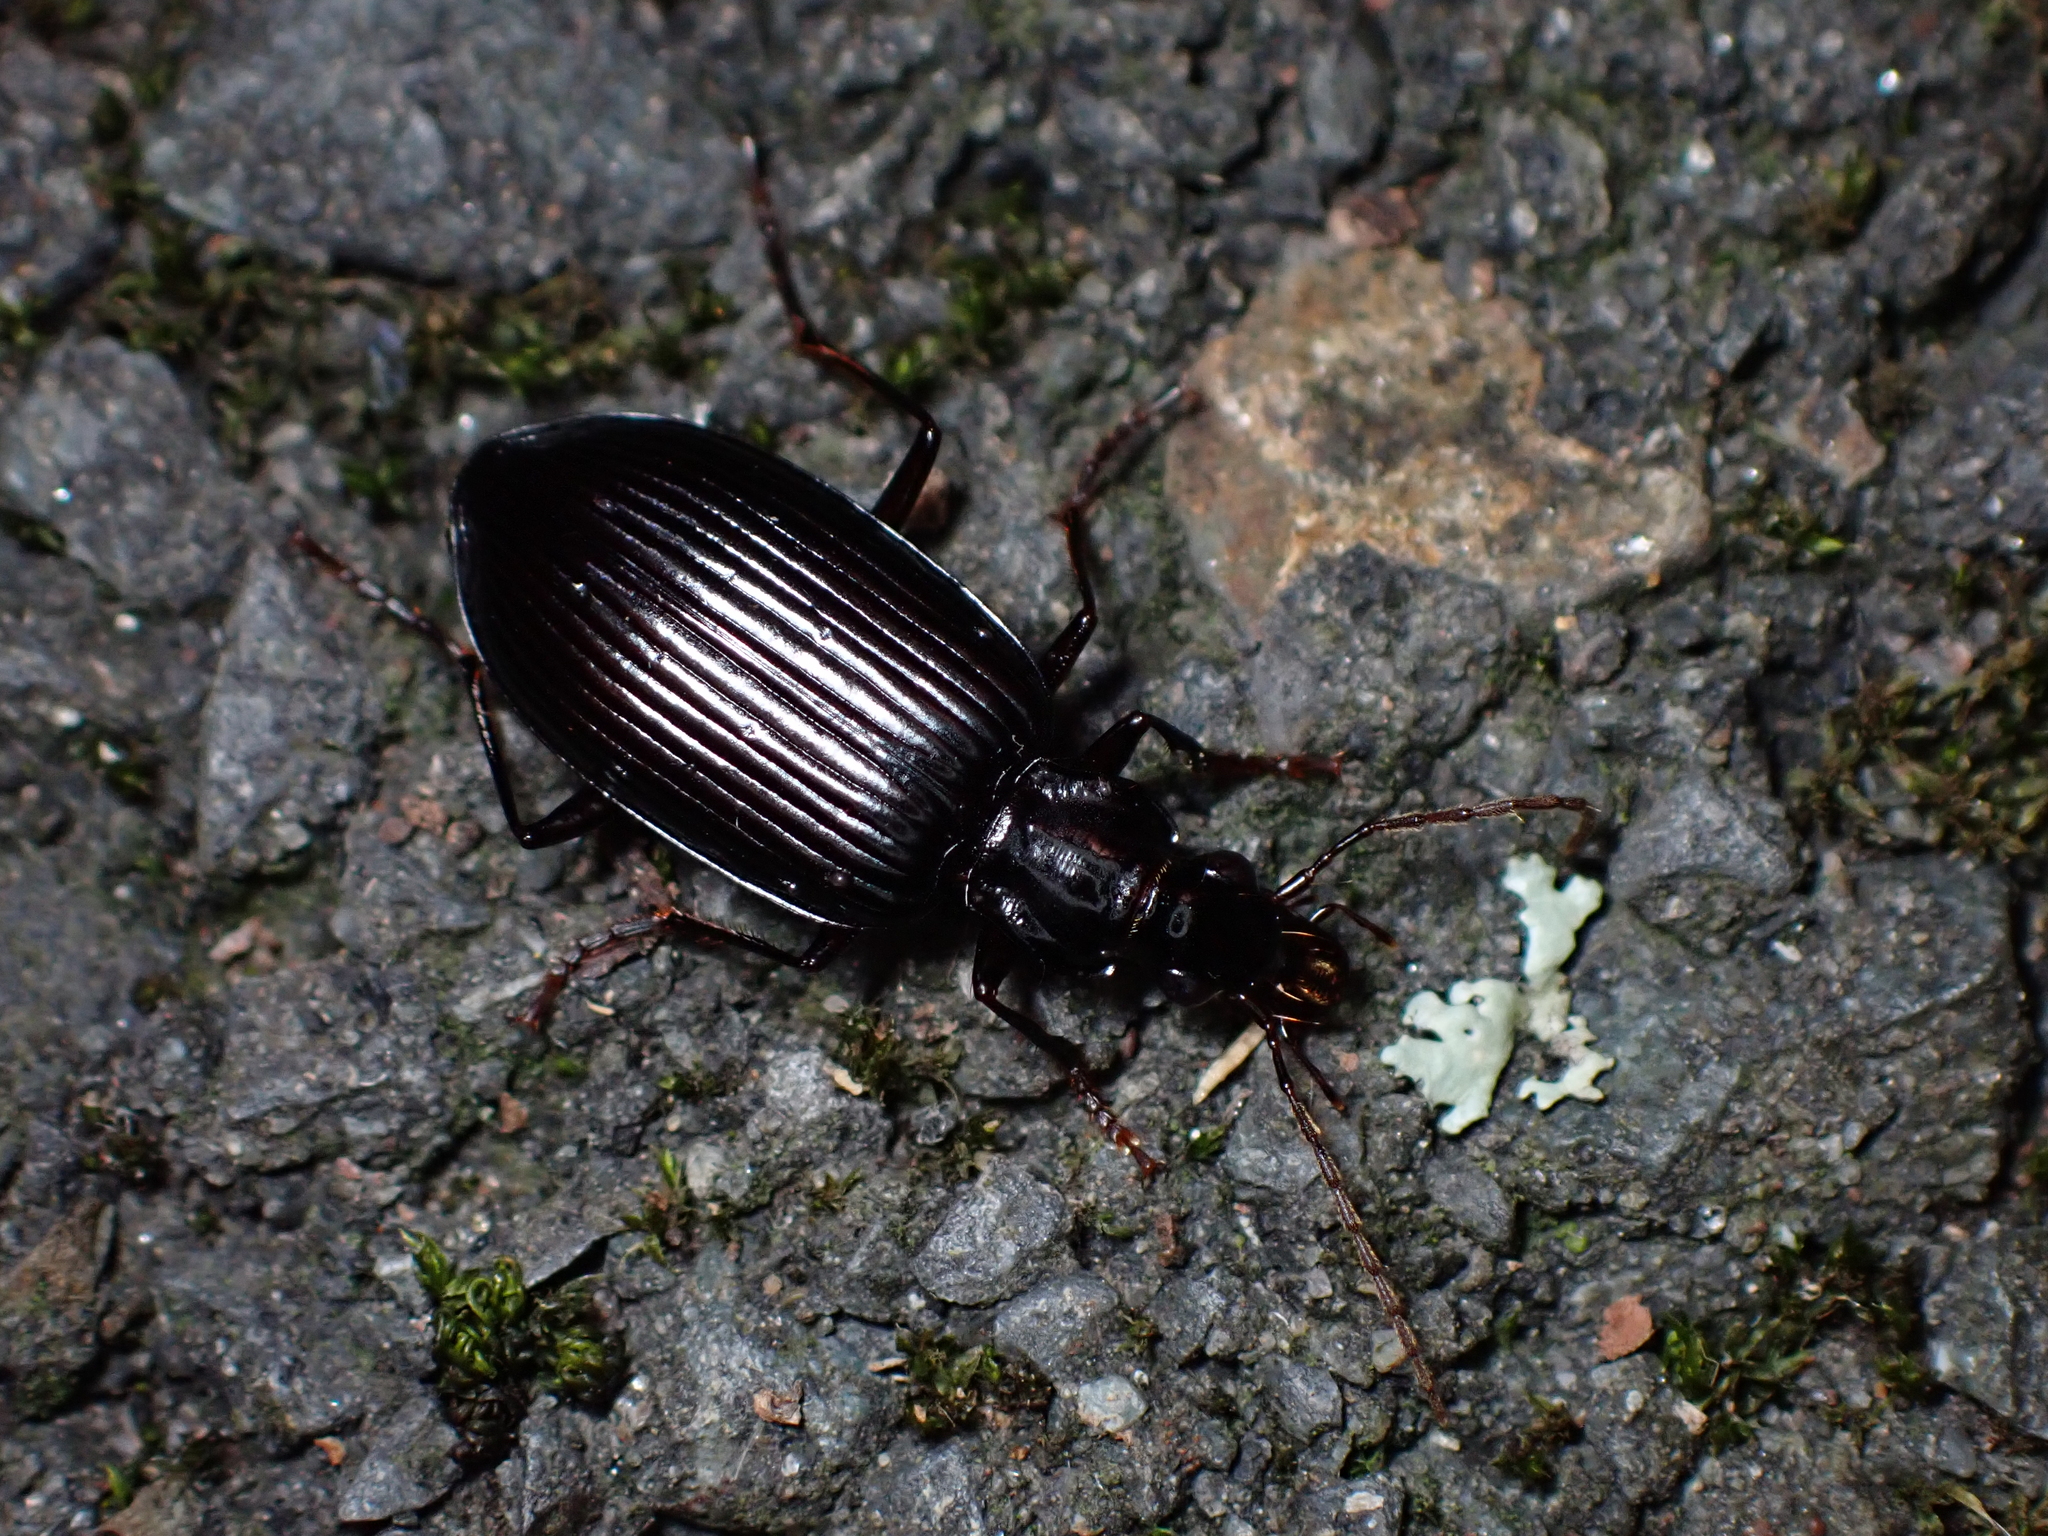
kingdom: Animalia
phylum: Arthropoda
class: Insecta
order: Coleoptera
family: Carabidae
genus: Platynus
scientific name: Platynus macropterus
